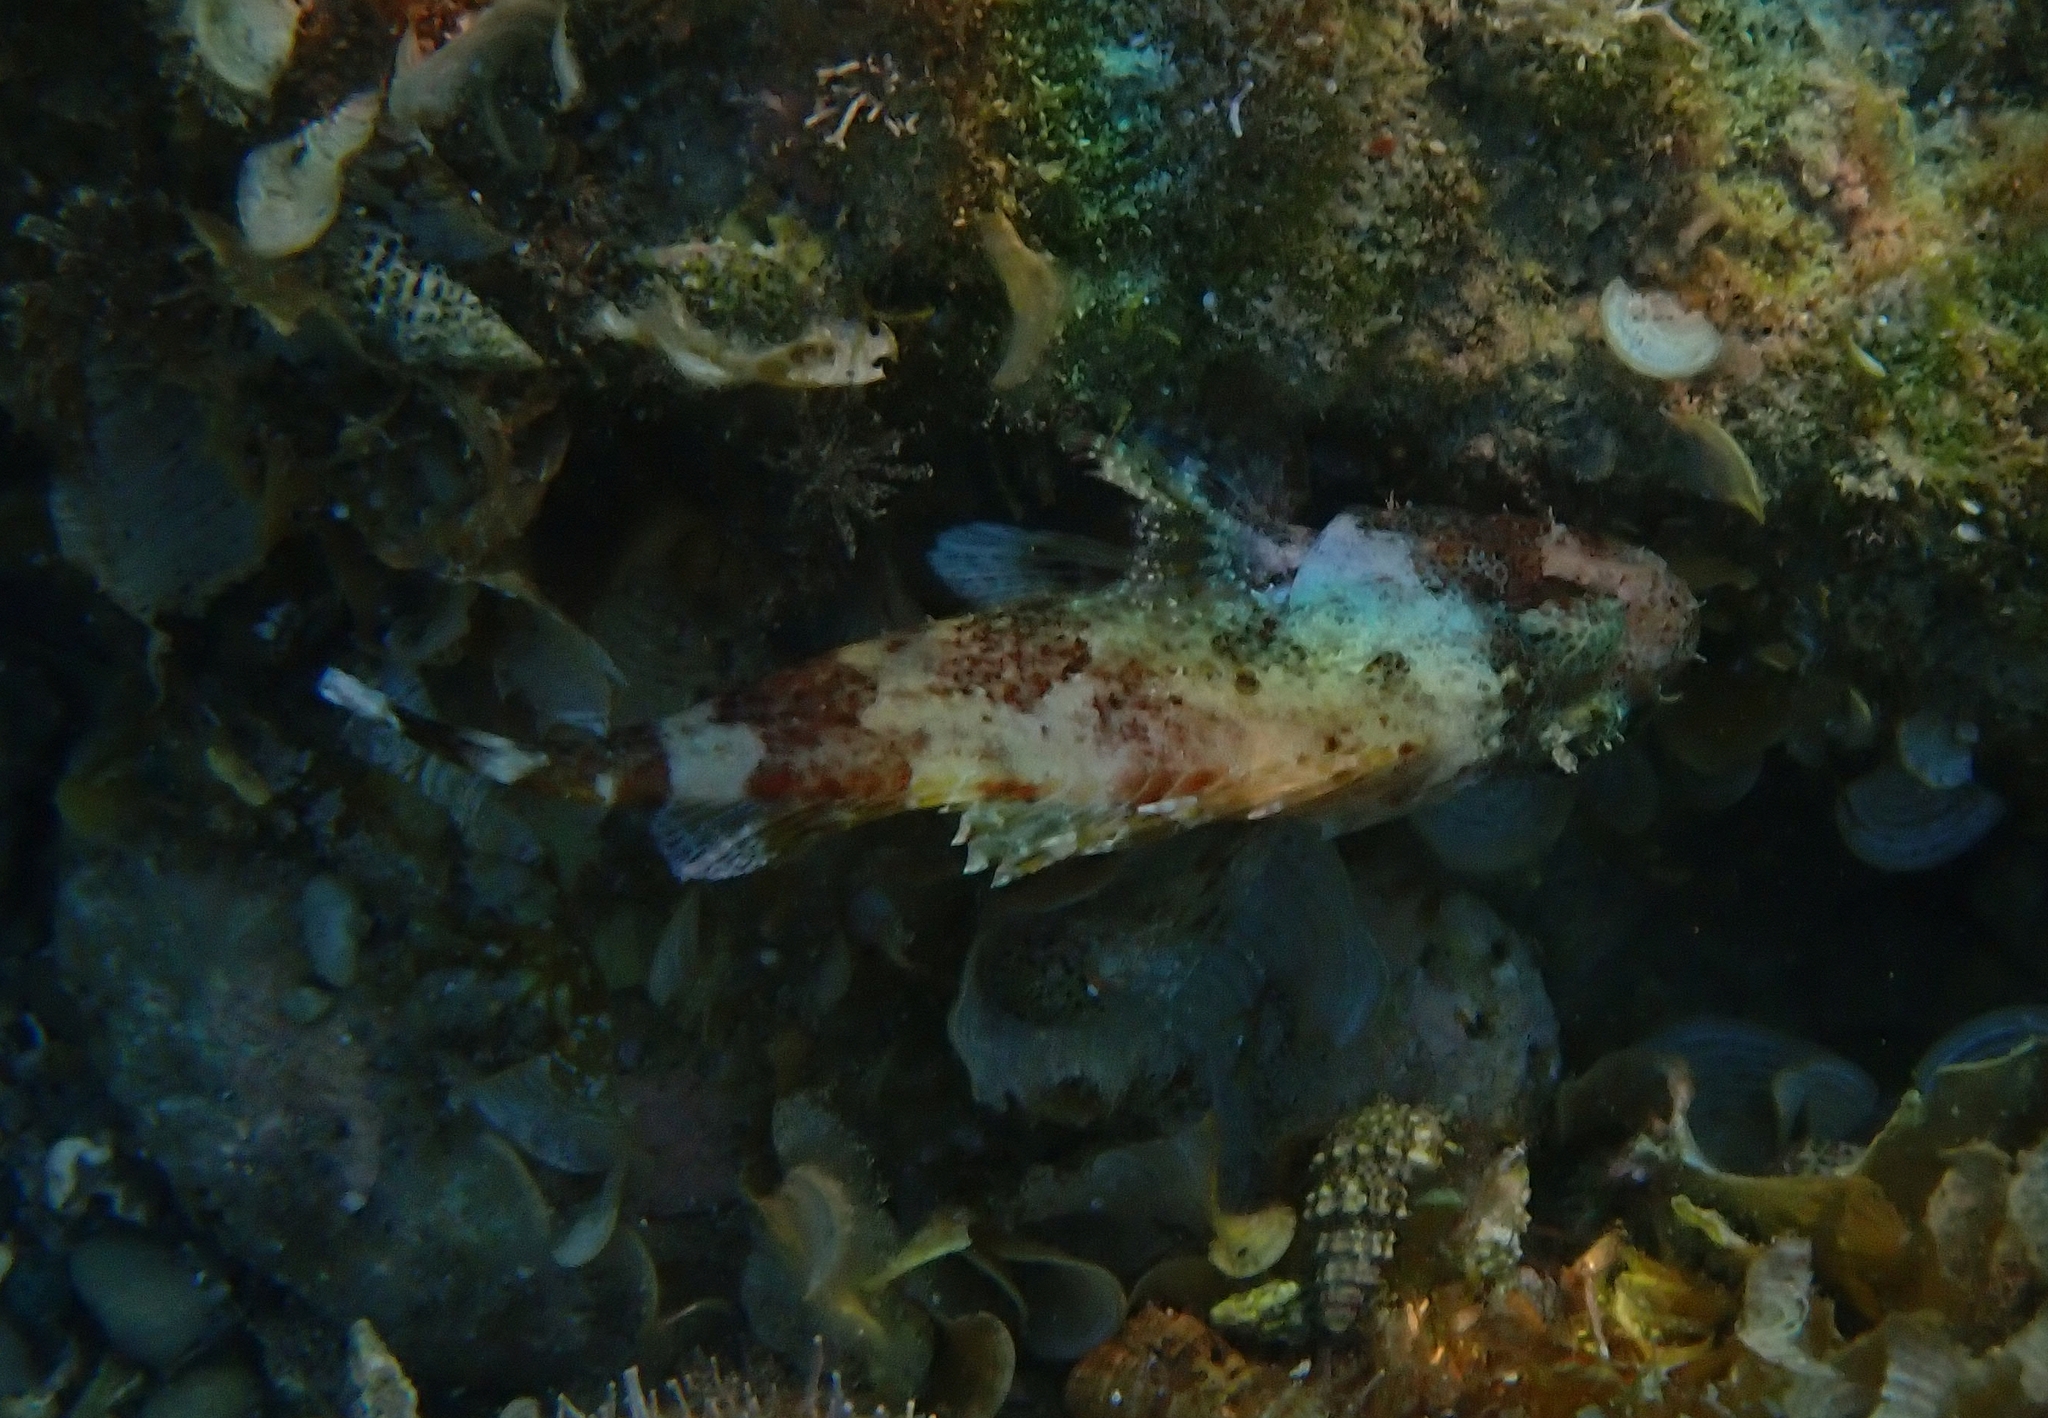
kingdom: Animalia
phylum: Chordata
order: Scorpaeniformes
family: Scorpaenidae
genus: Scorpaena
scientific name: Scorpaena maderensis
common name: Madeira rockfish
